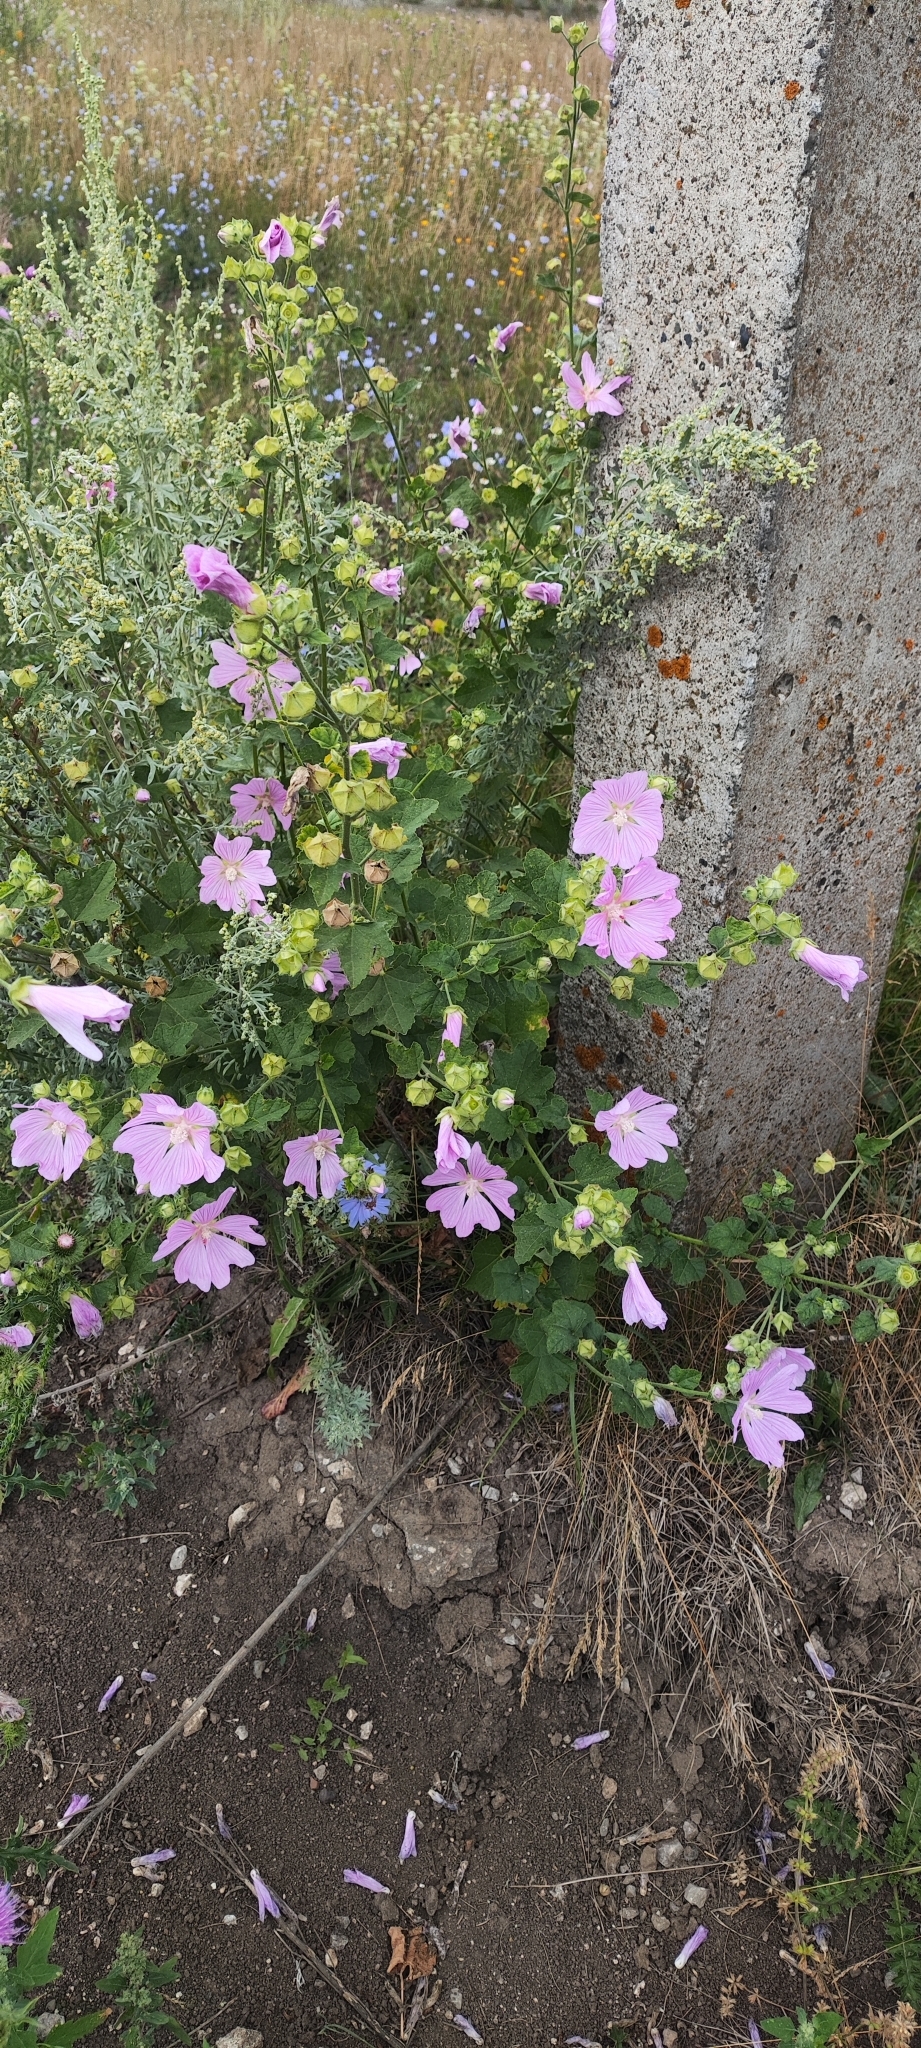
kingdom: Plantae
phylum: Tracheophyta
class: Magnoliopsida
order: Malvales
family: Malvaceae
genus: Malva
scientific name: Malva thuringiaca
